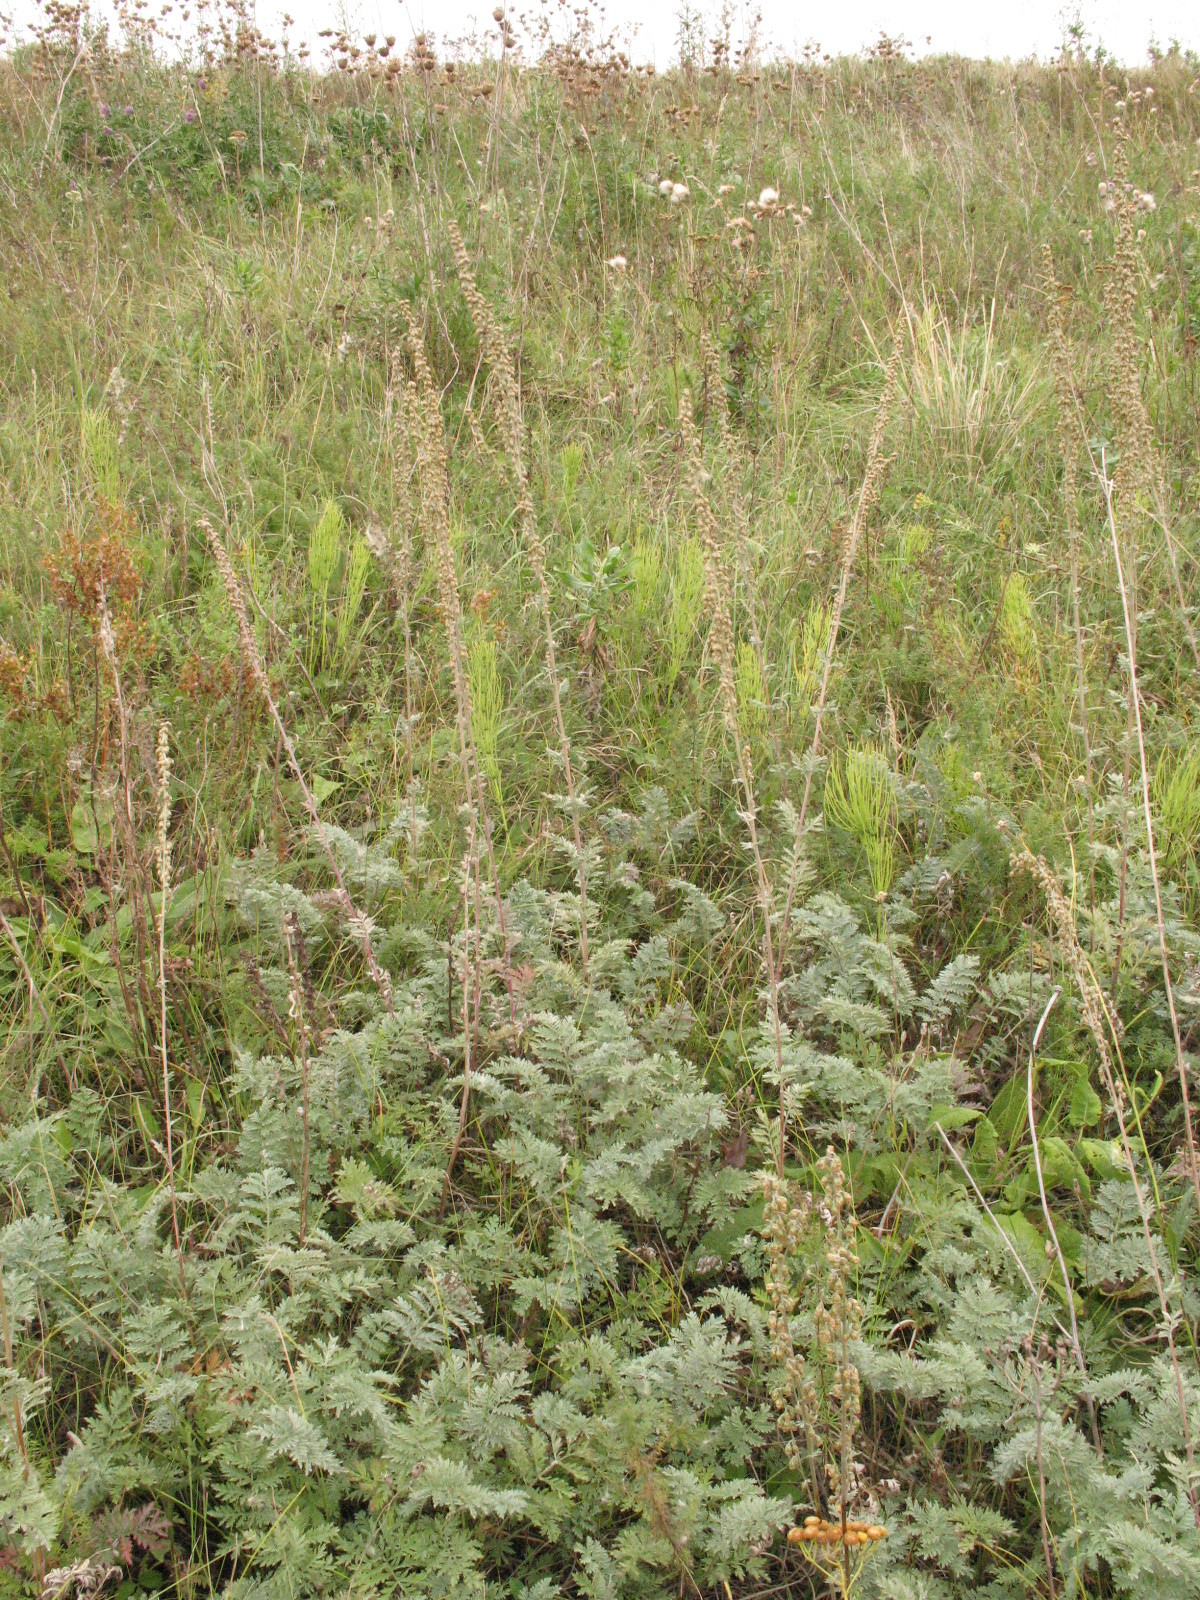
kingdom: Plantae
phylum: Tracheophyta
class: Magnoliopsida
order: Asterales
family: Asteraceae
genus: Artemisia
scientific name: Artemisia armeniaca
